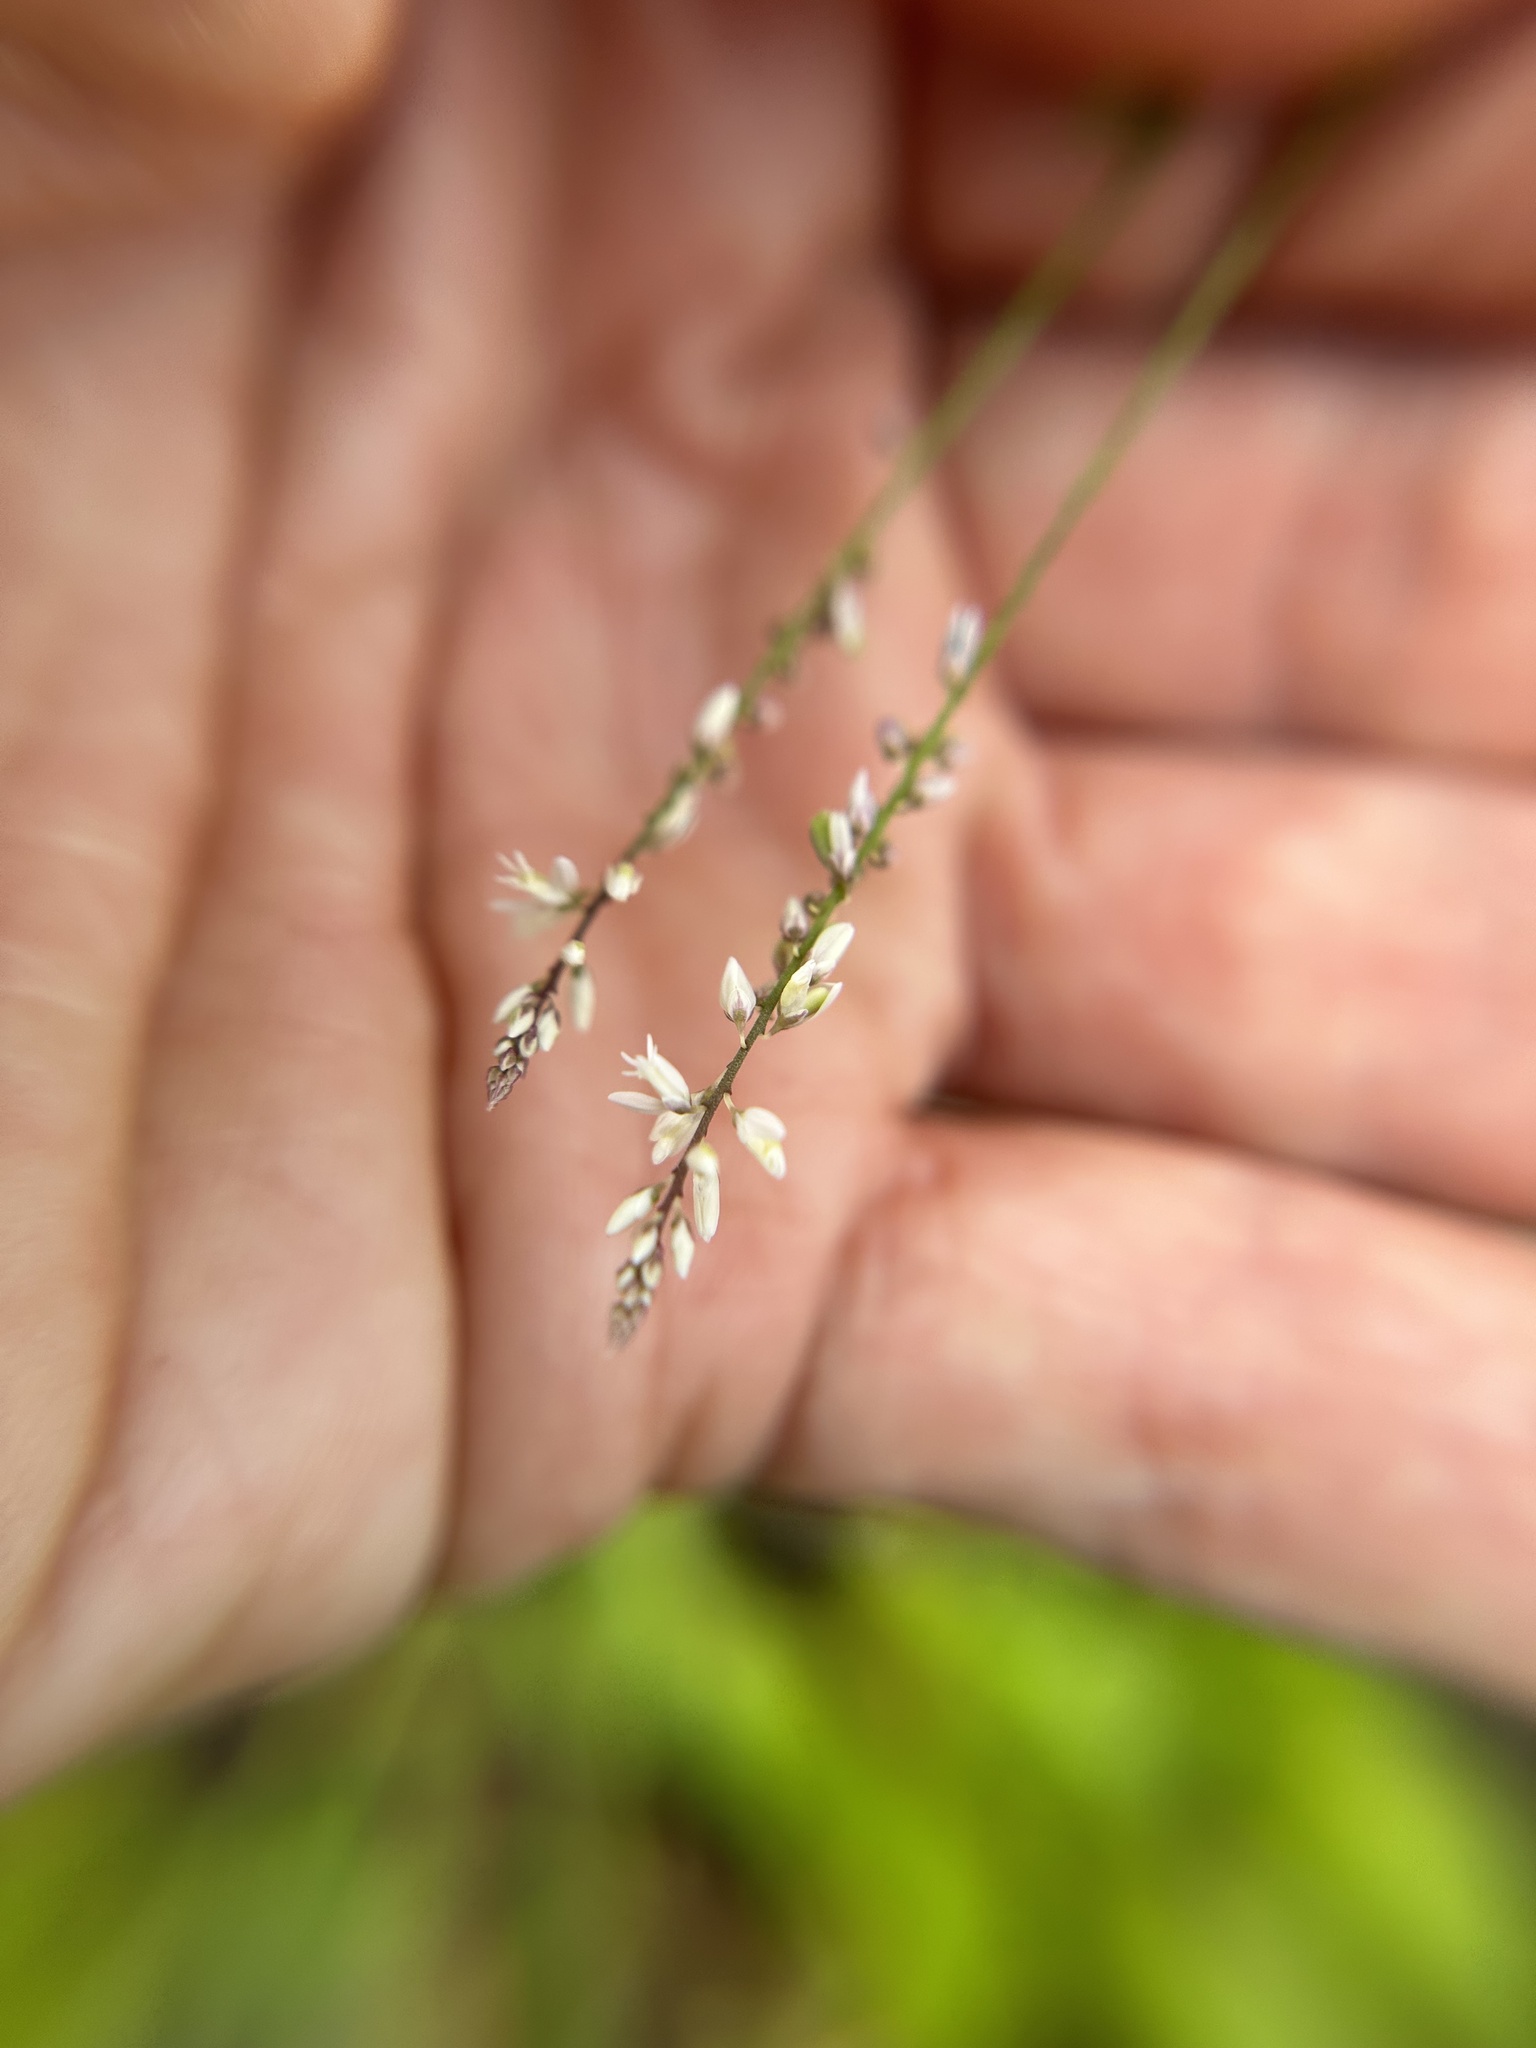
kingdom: Plantae
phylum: Tracheophyta
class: Magnoliopsida
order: Fabales
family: Polygalaceae
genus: Polygala
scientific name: Polygala paniculata
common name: Orosne
